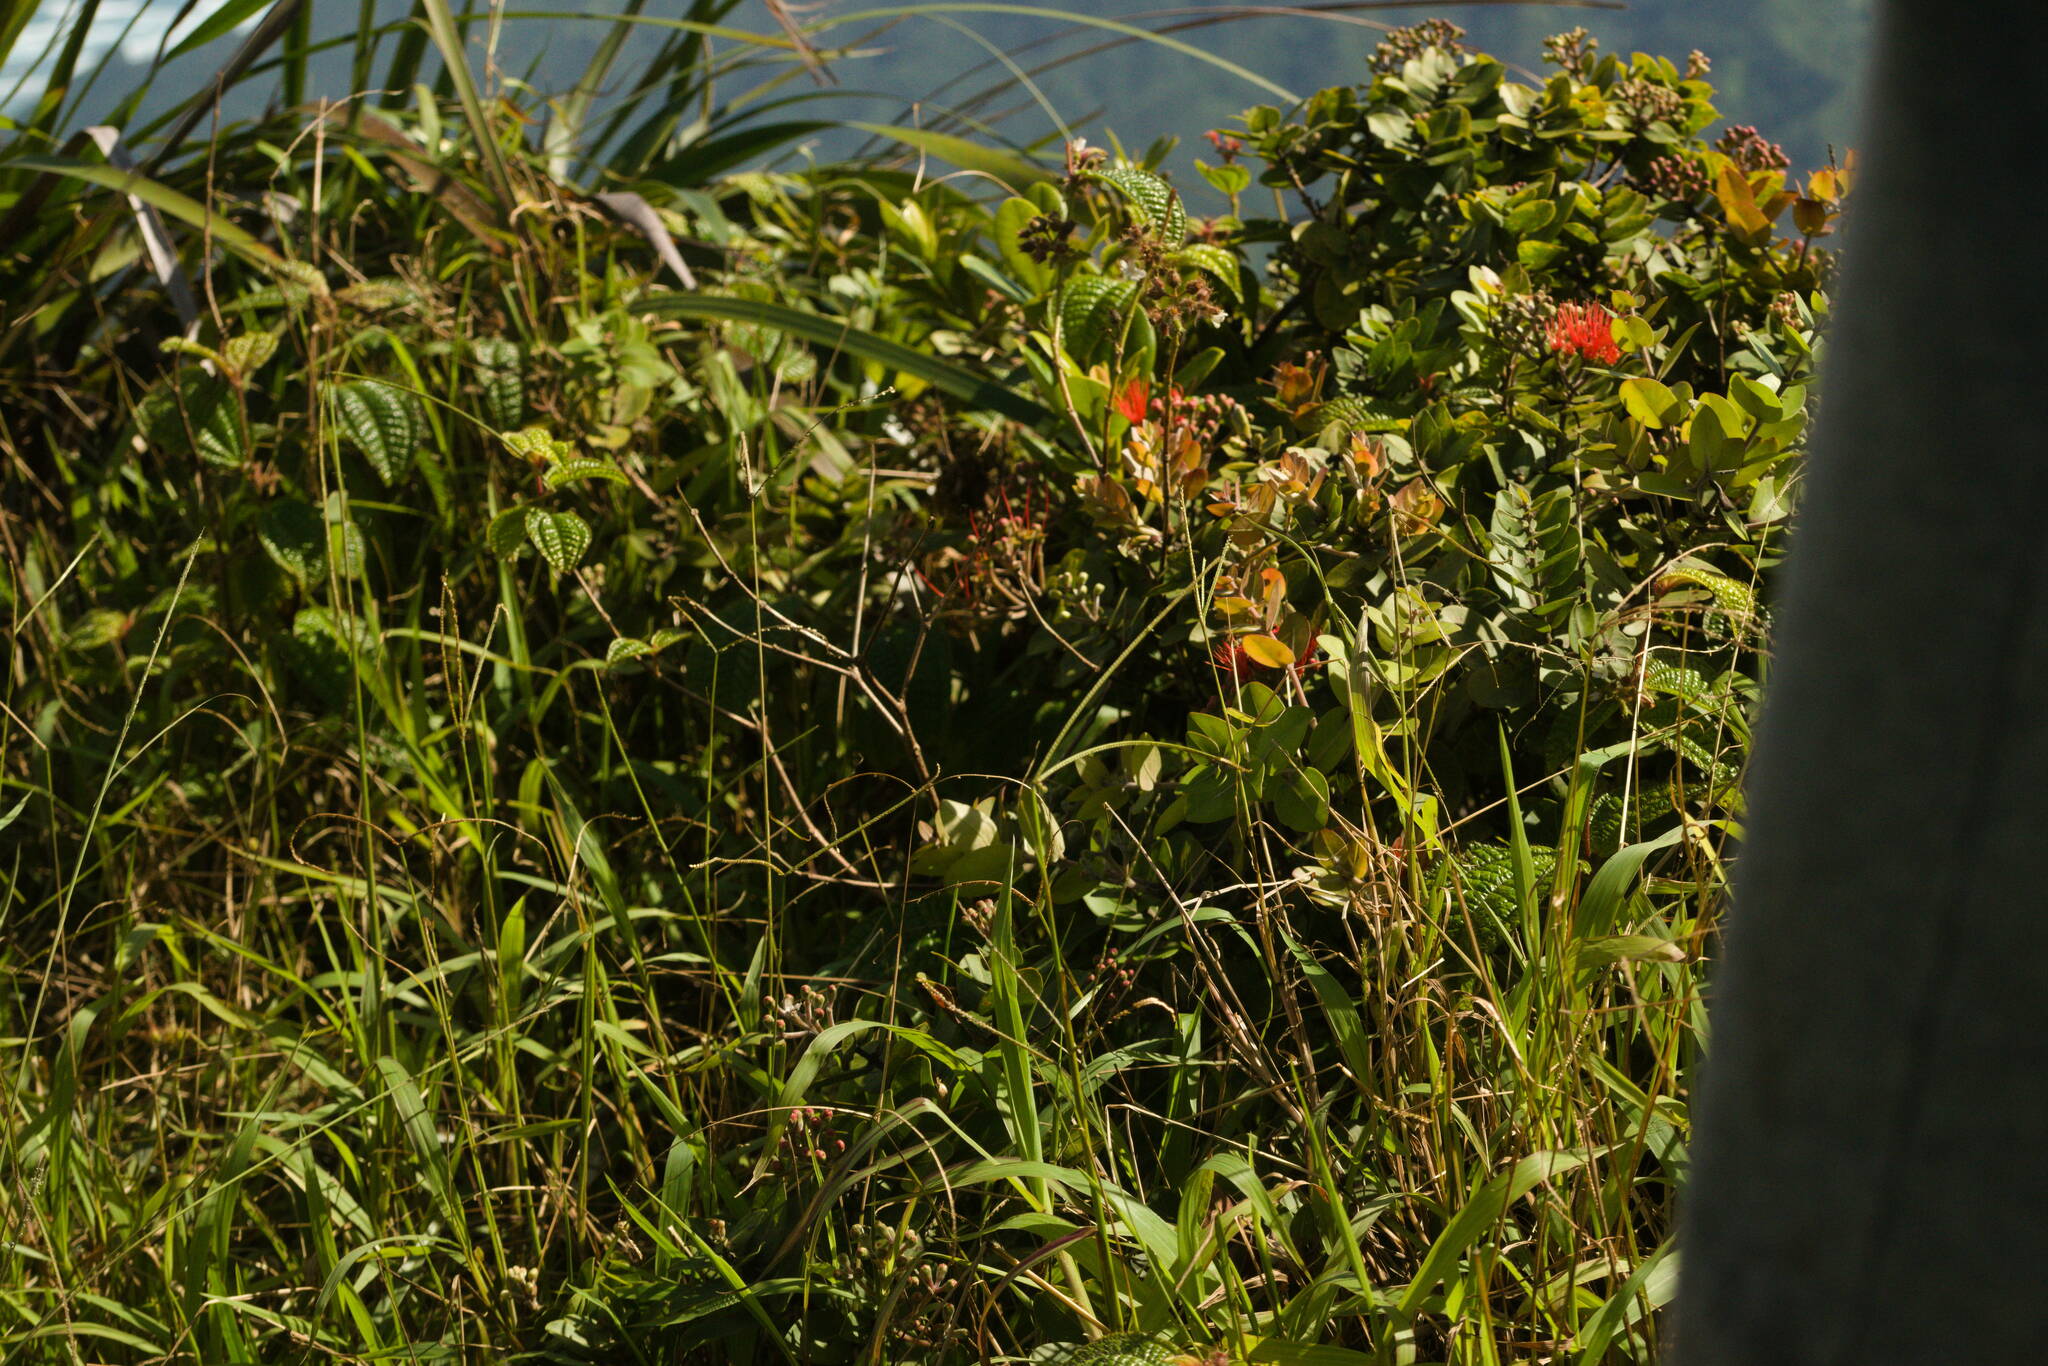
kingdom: Plantae
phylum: Tracheophyta
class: Liliopsida
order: Poales
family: Poaceae
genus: Paspalum
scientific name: Paspalum conjugatum
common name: Hilograss
